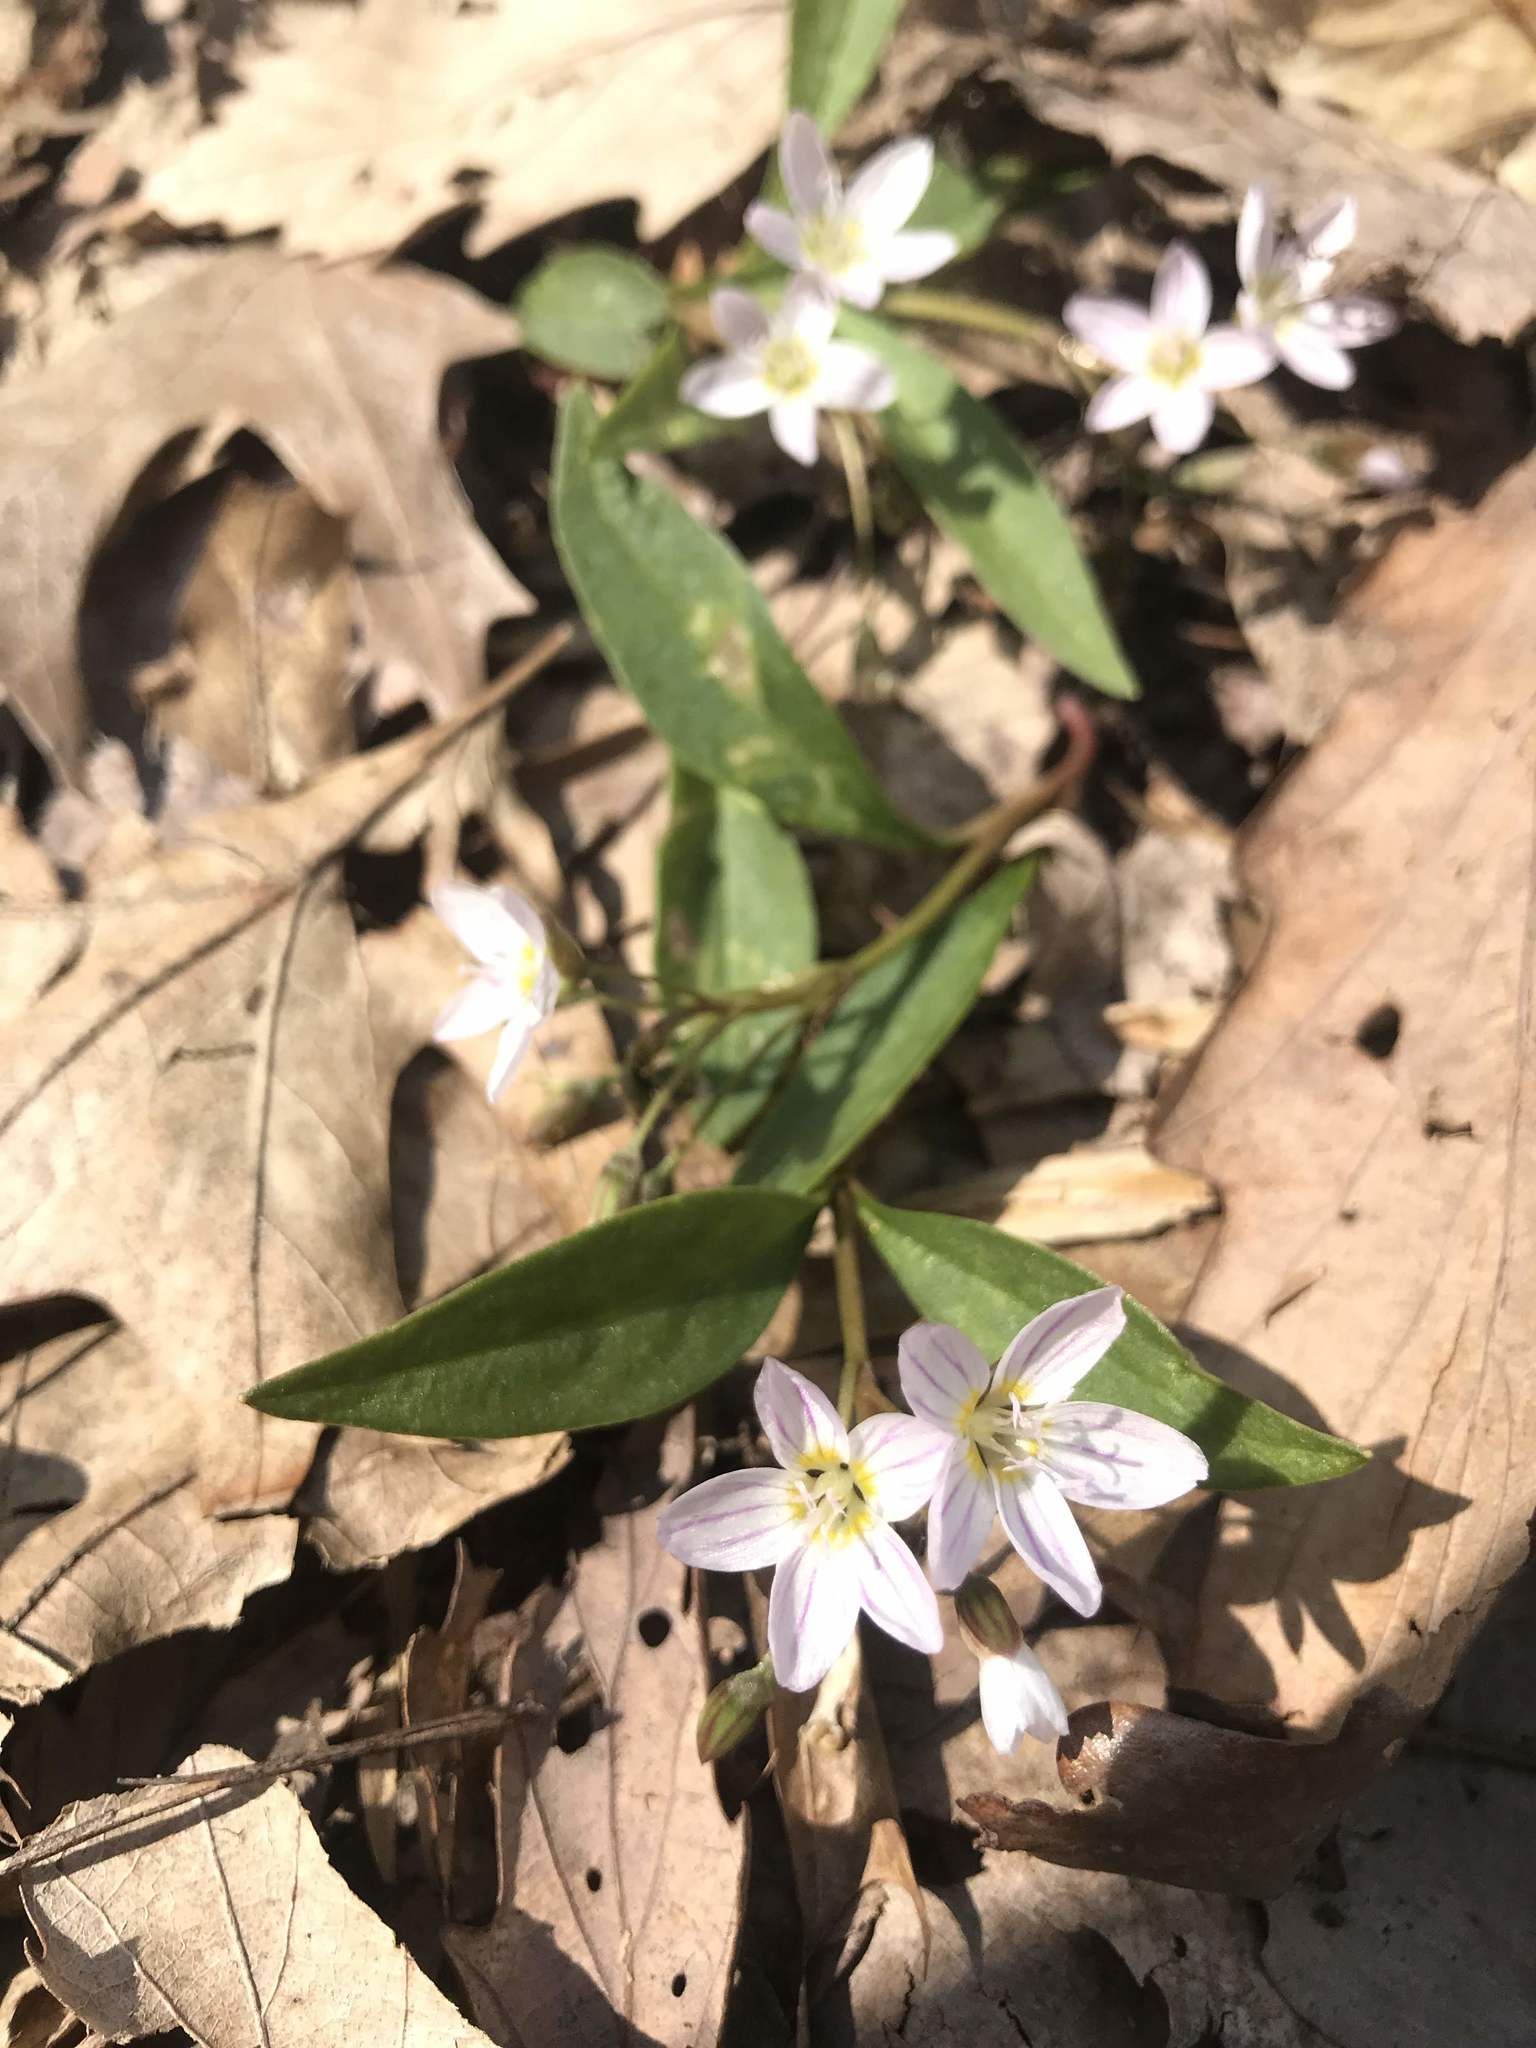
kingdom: Plantae
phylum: Tracheophyta
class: Magnoliopsida
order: Caryophyllales
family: Montiaceae
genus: Claytonia
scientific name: Claytonia caroliniana
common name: Carolina spring beauty
